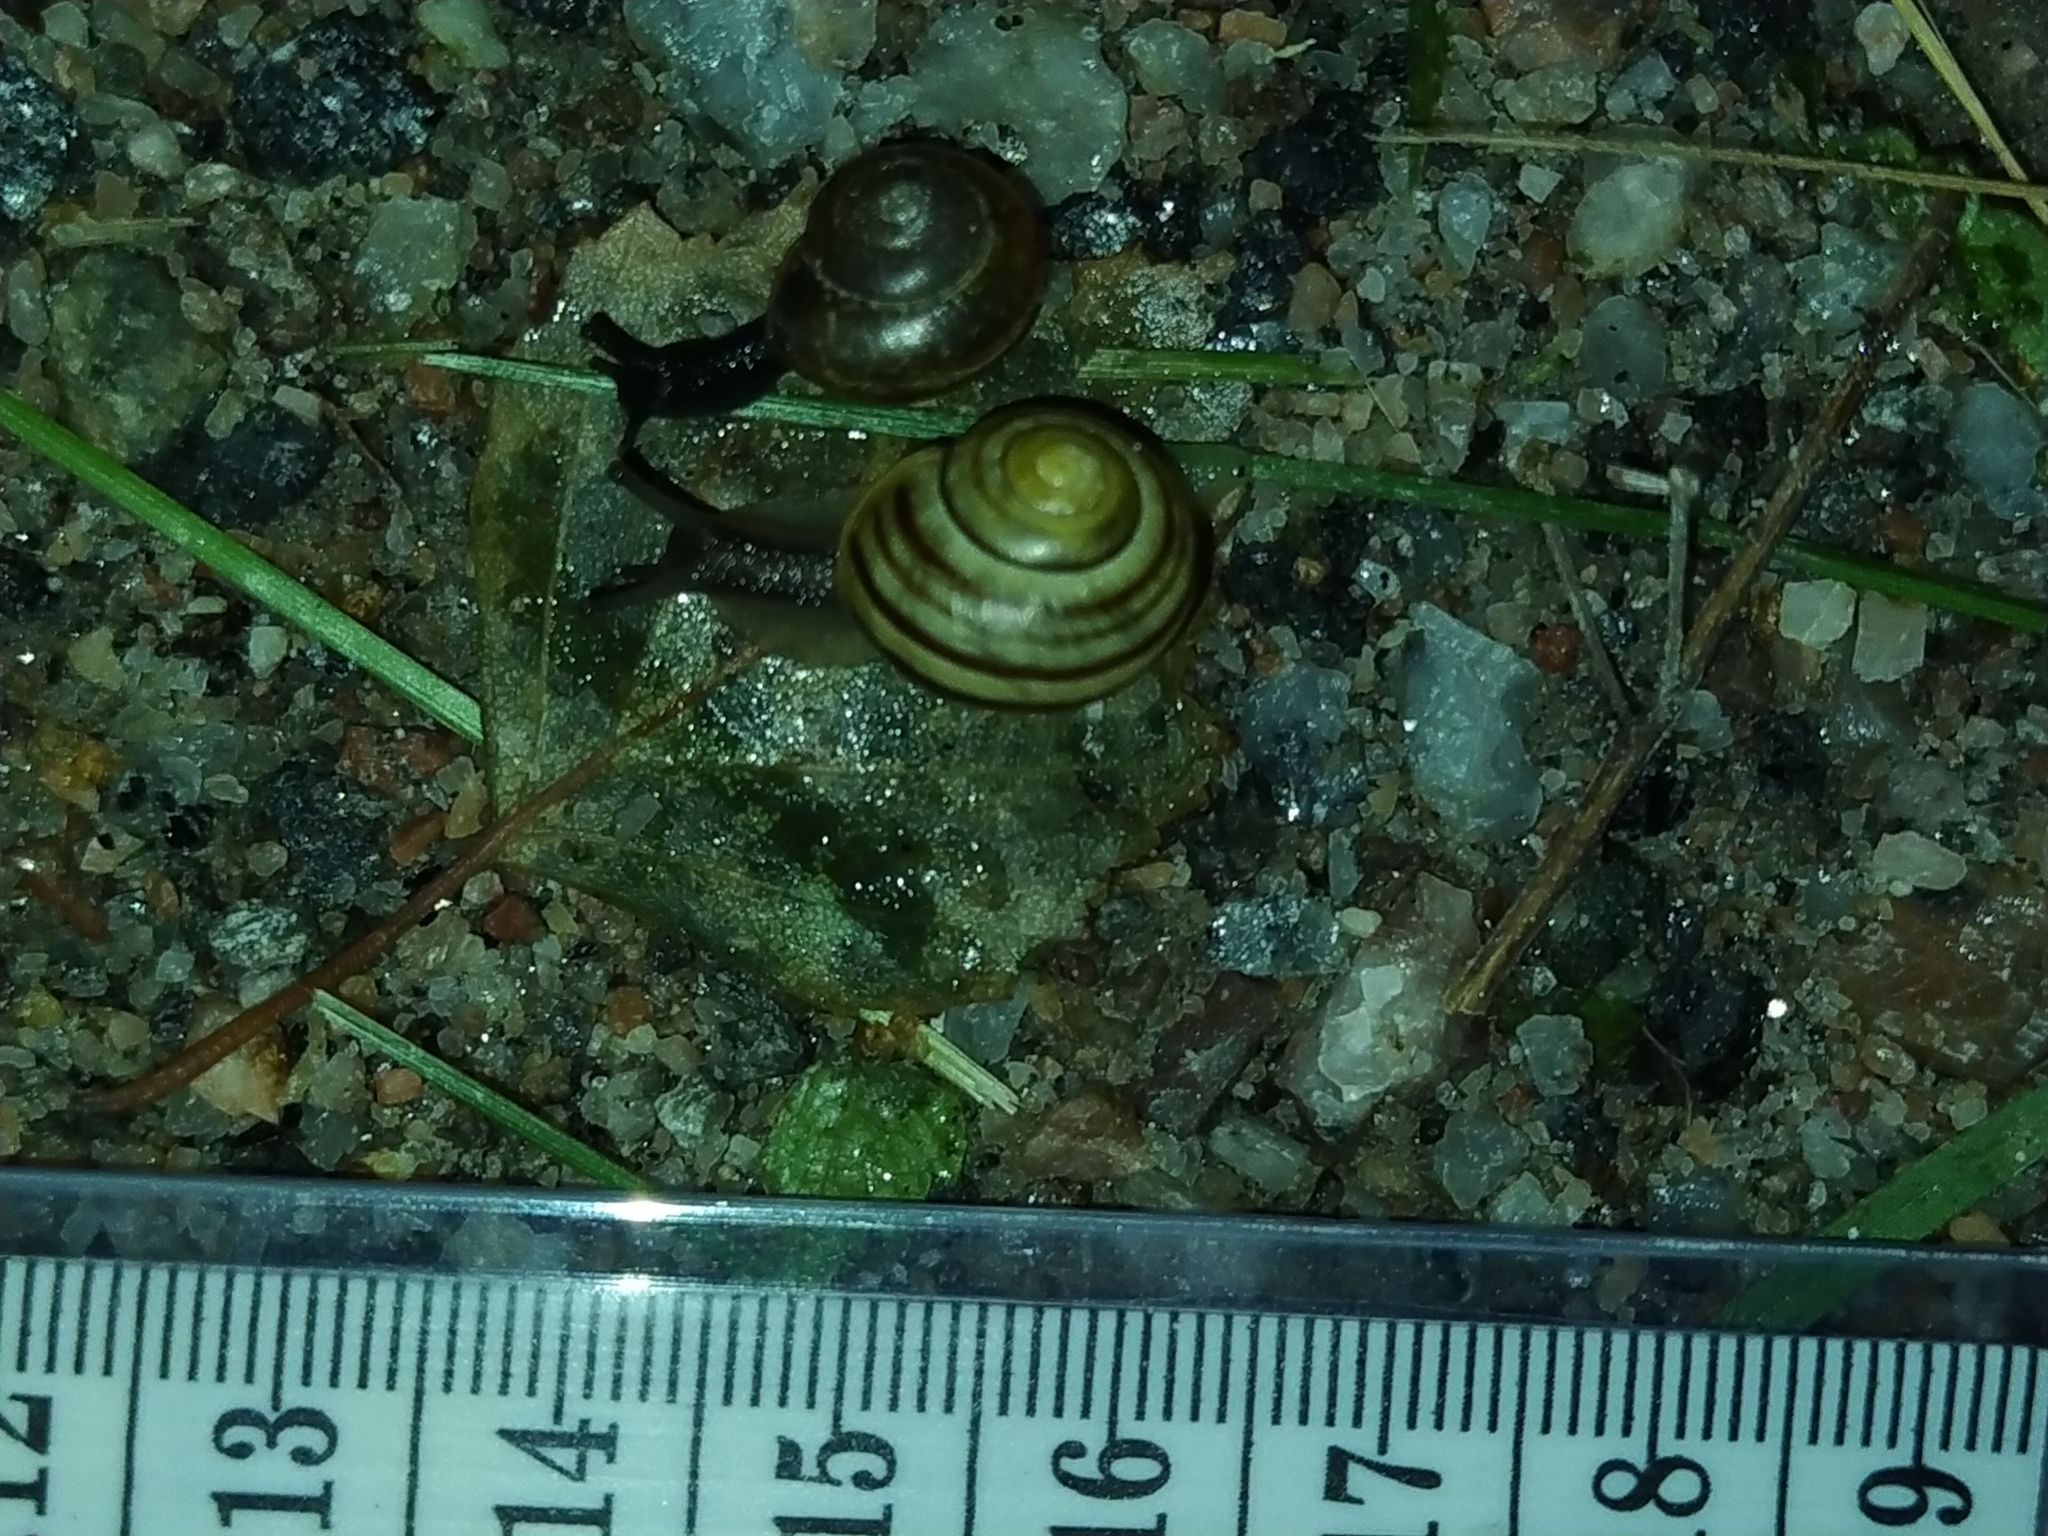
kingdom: Animalia
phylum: Mollusca
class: Gastropoda
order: Stylommatophora
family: Helicidae
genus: Cepaea
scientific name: Cepaea
